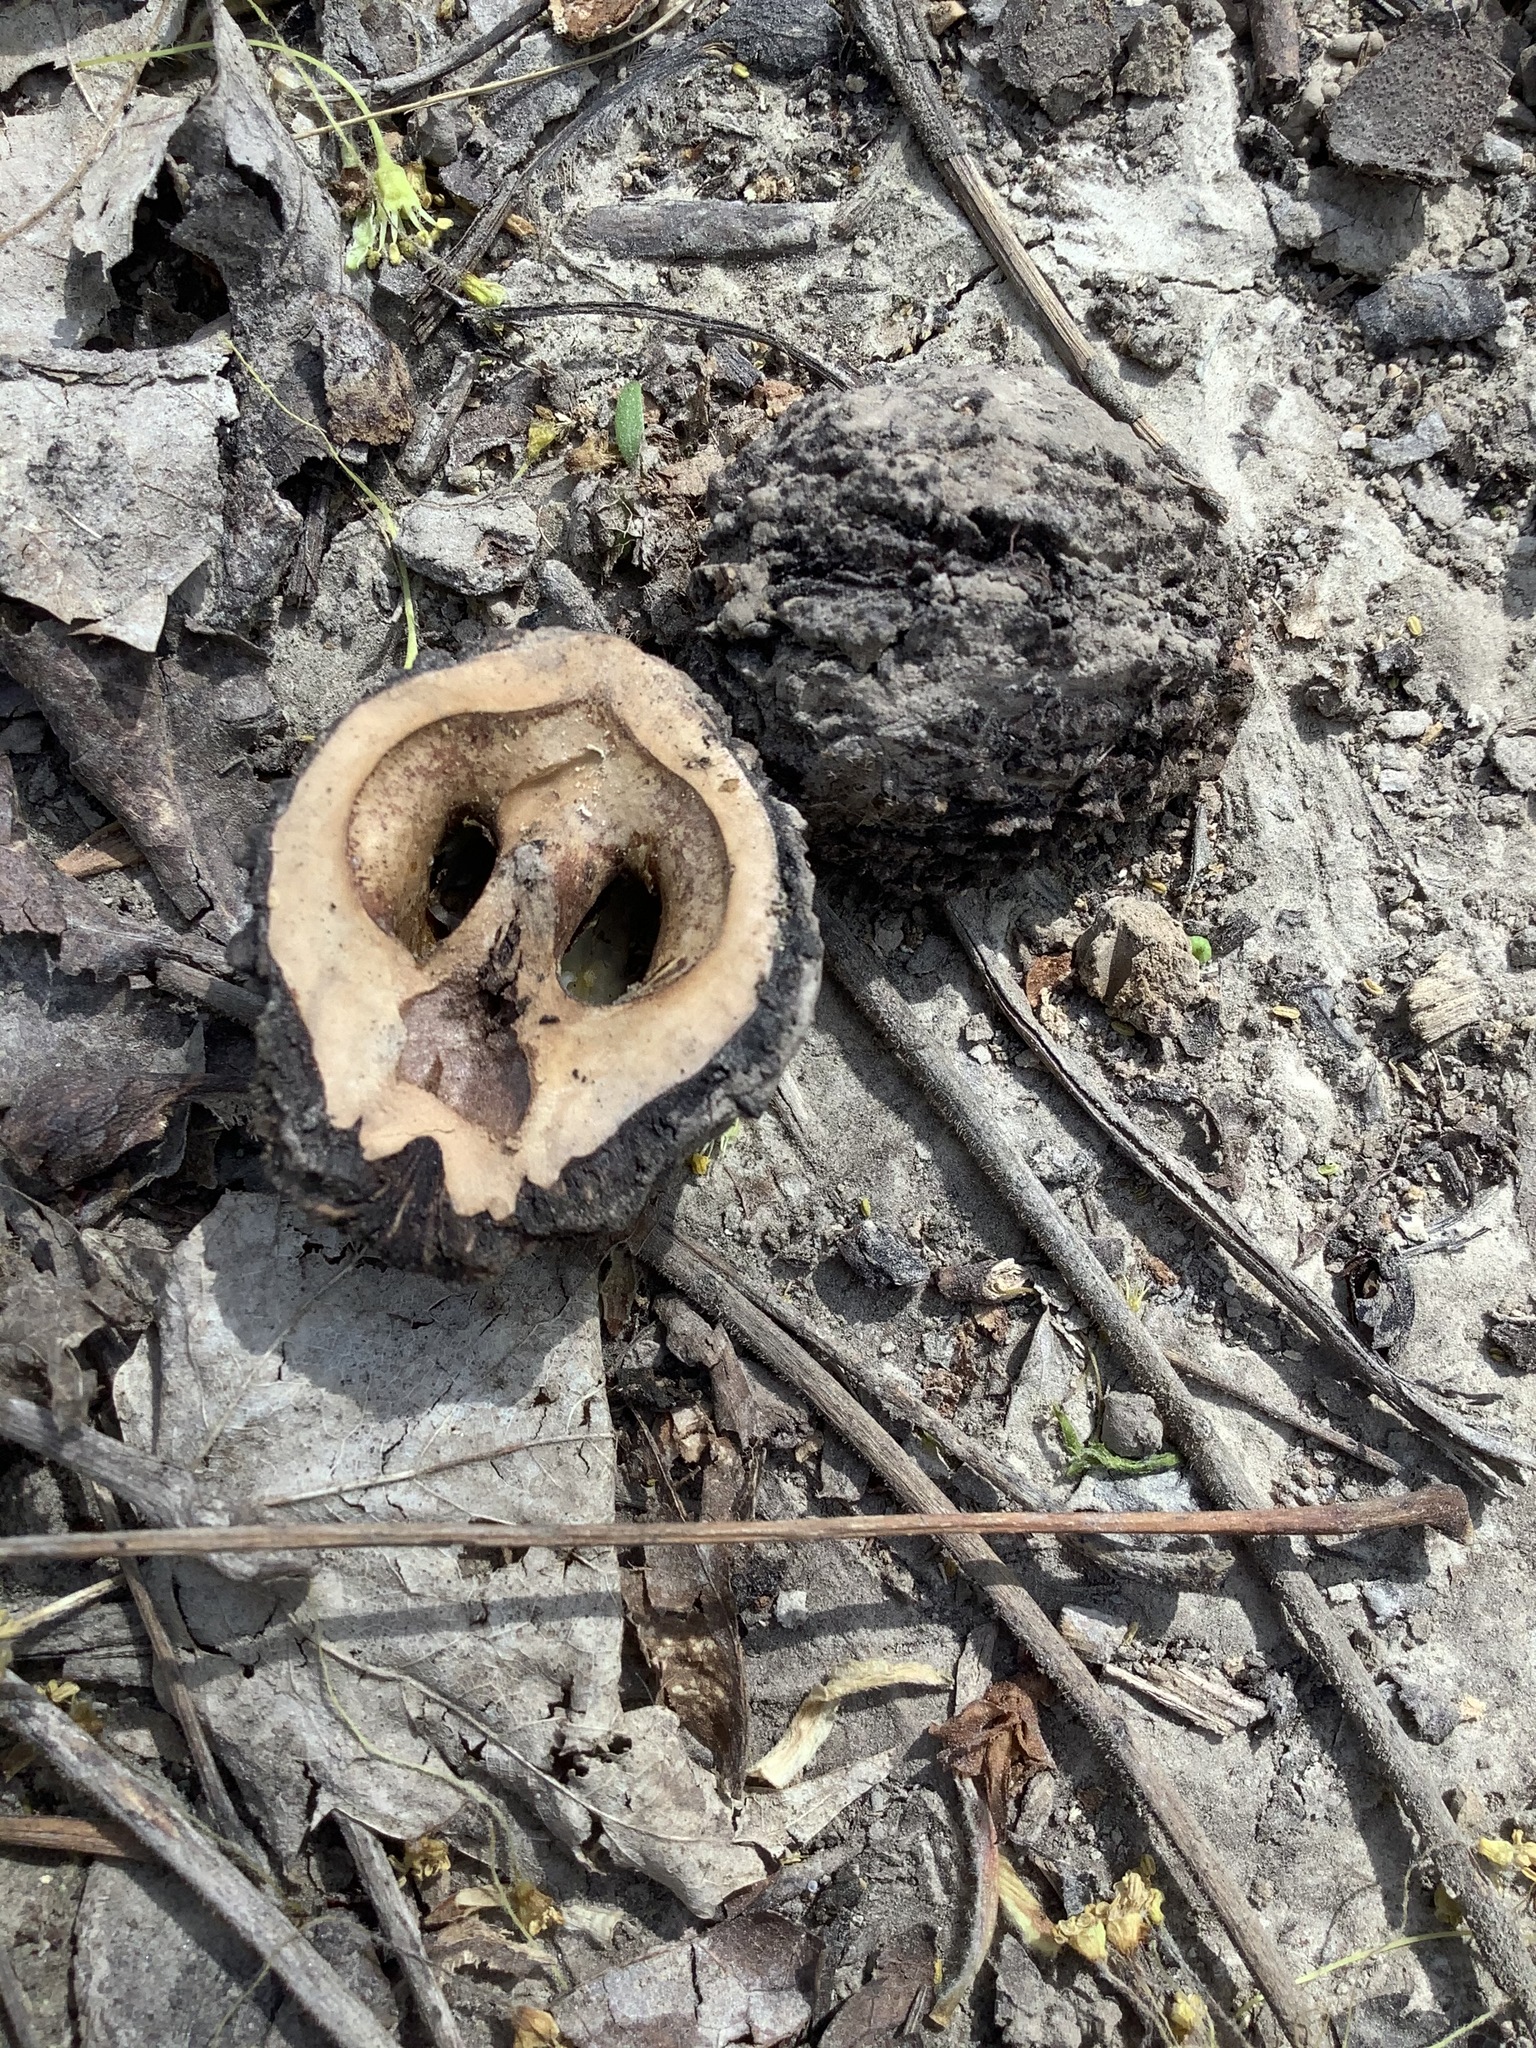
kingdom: Plantae
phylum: Tracheophyta
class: Magnoliopsida
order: Fagales
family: Juglandaceae
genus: Juglans
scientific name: Juglans nigra
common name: Black walnut
